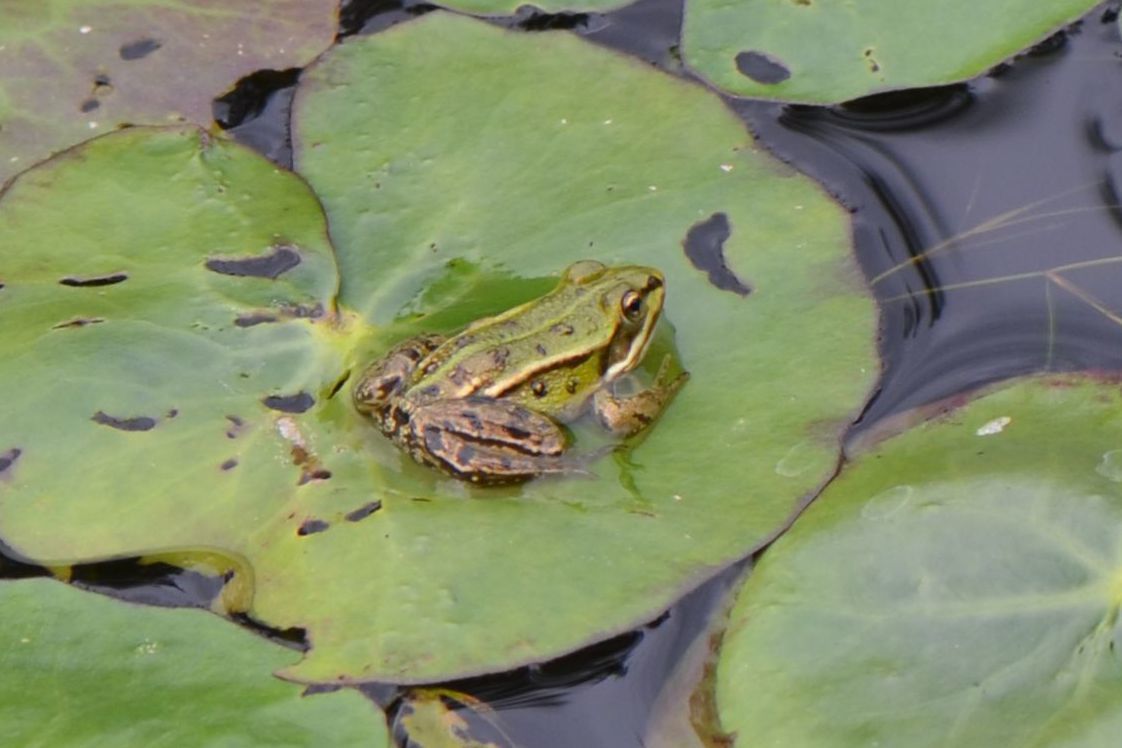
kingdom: Animalia
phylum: Chordata
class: Amphibia
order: Anura
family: Ranidae
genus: Pelophylax
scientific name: Pelophylax
